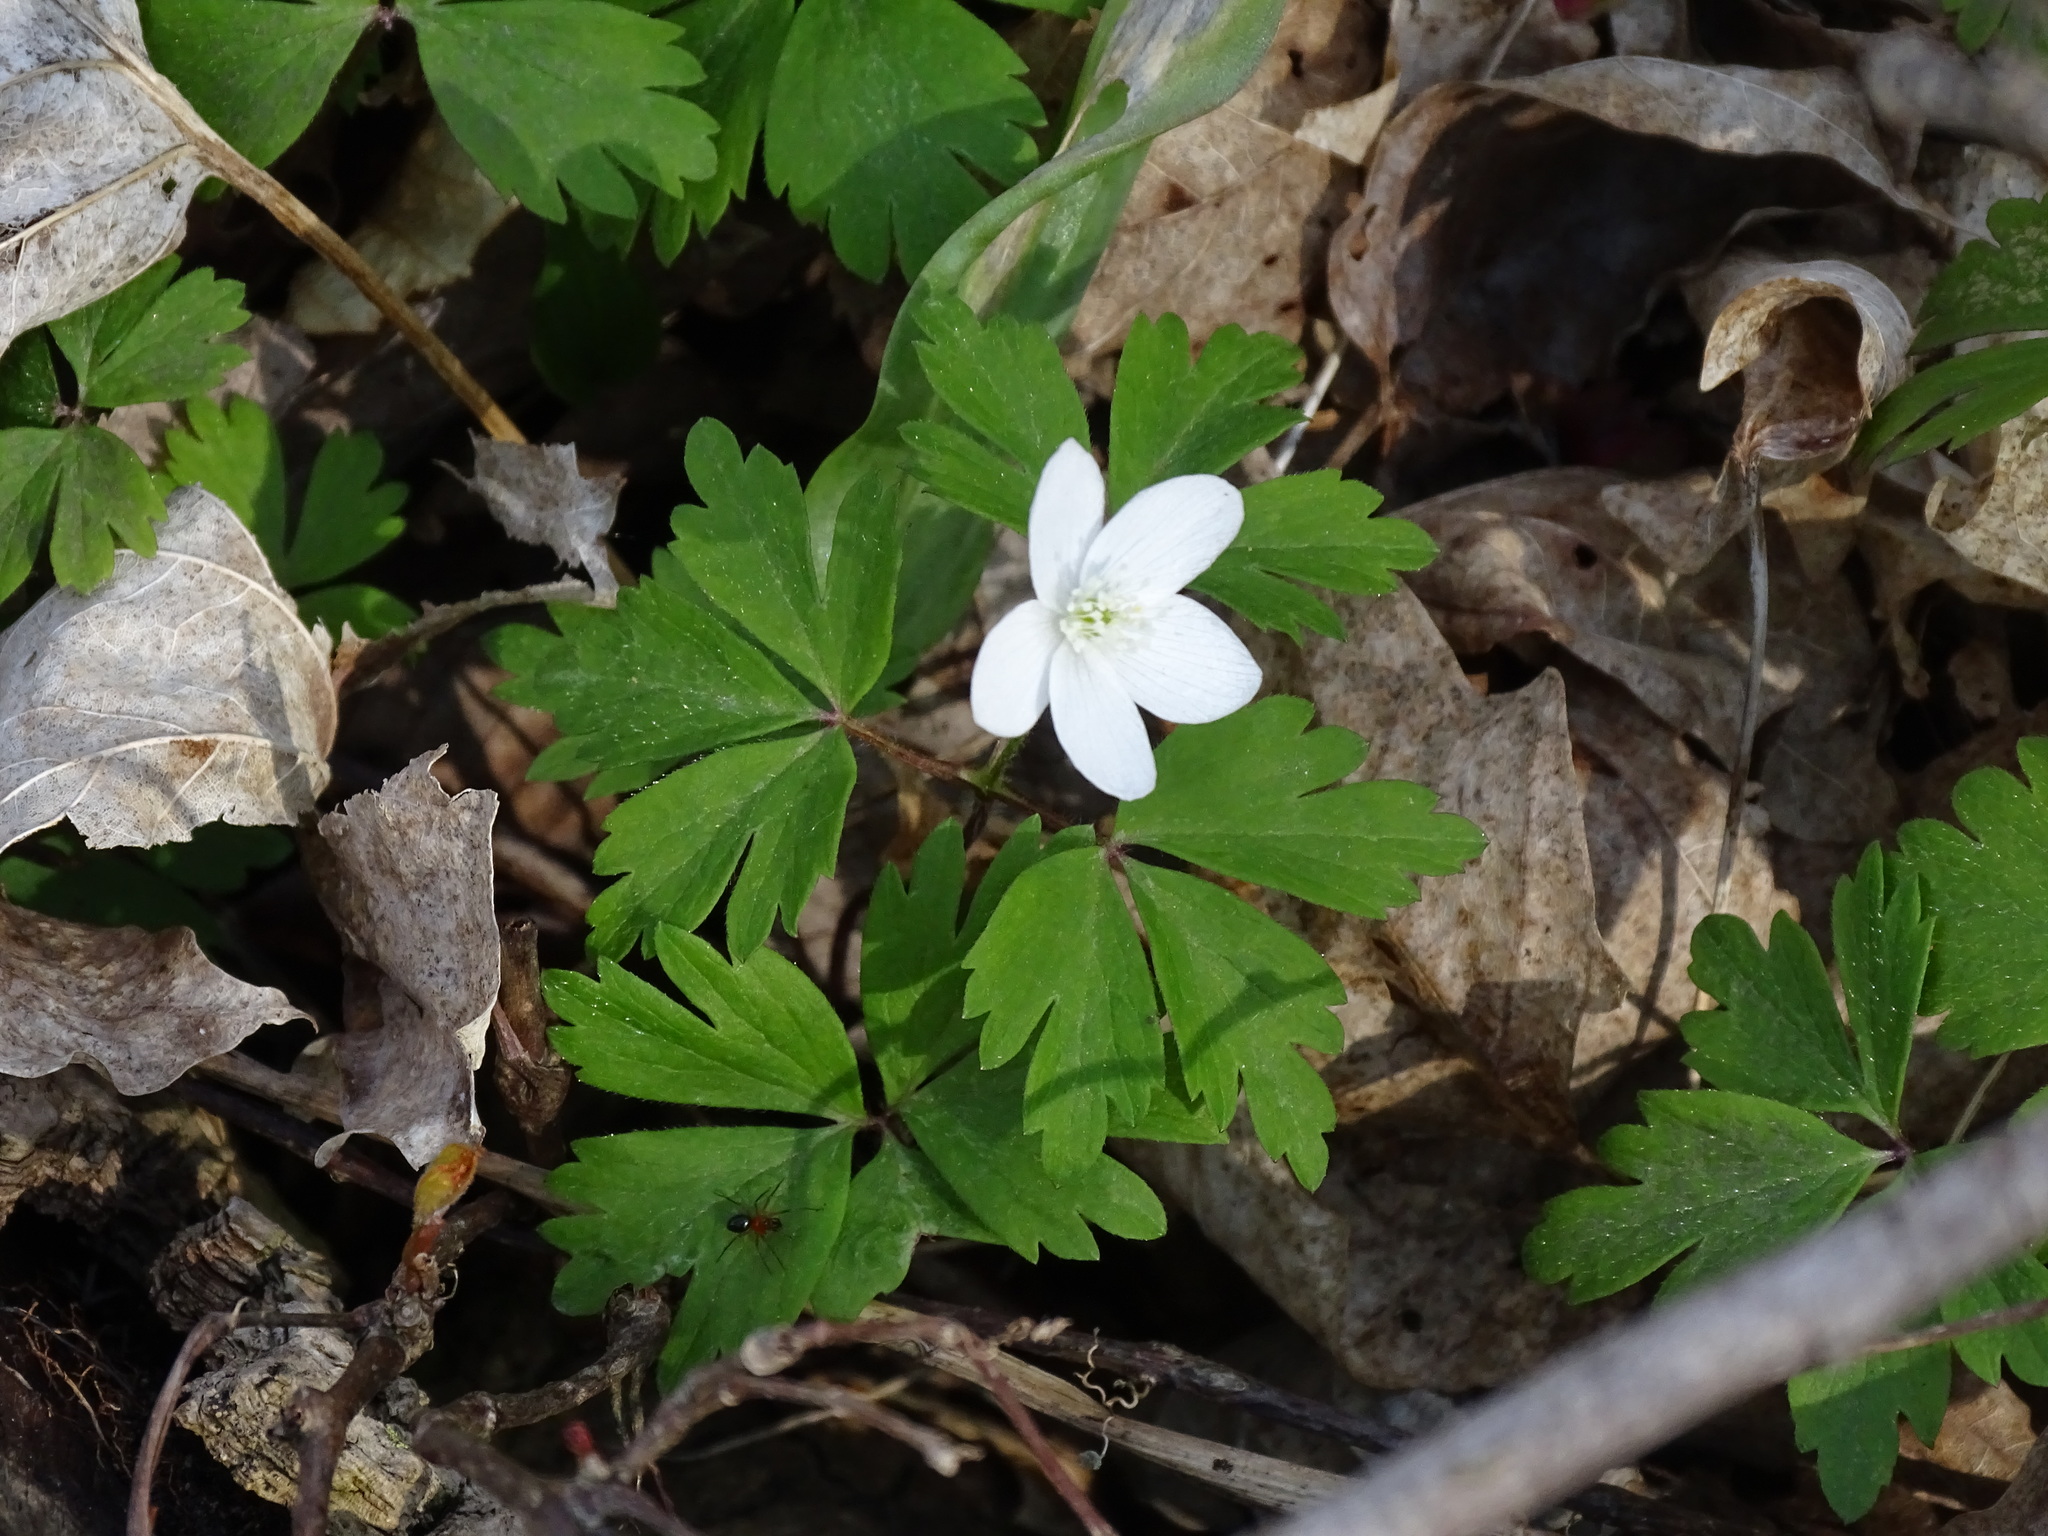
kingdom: Plantae
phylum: Tracheophyta
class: Magnoliopsida
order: Ranunculales
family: Ranunculaceae
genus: Anemone
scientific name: Anemone quinquefolia
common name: Wood anemone
